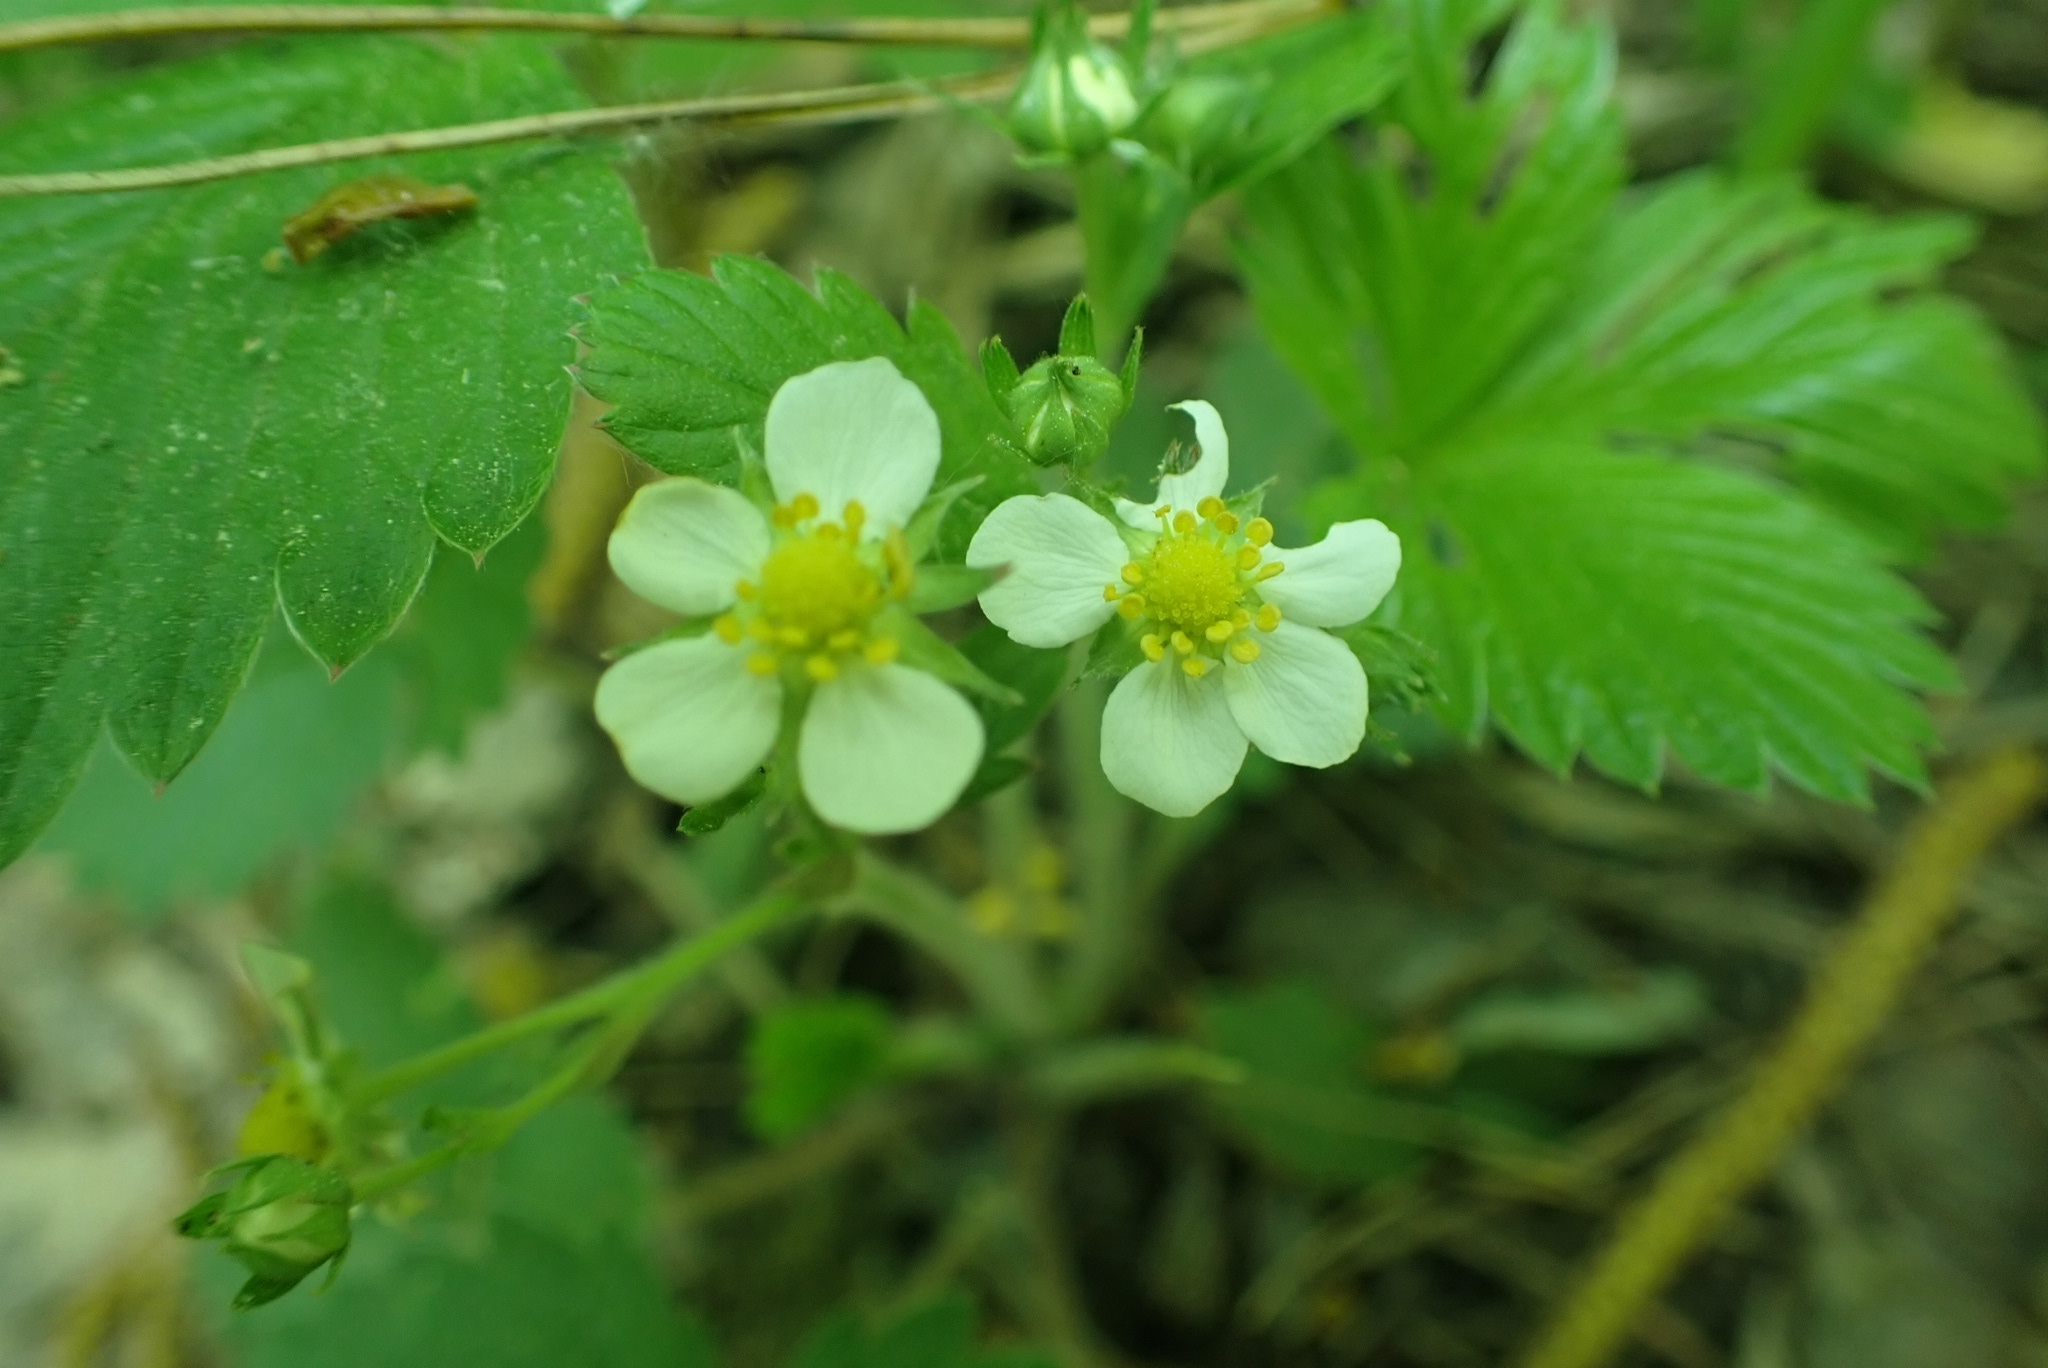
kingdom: Plantae
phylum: Tracheophyta
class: Magnoliopsida
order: Rosales
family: Rosaceae
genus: Fragaria
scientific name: Fragaria vesca
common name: Wild strawberry
